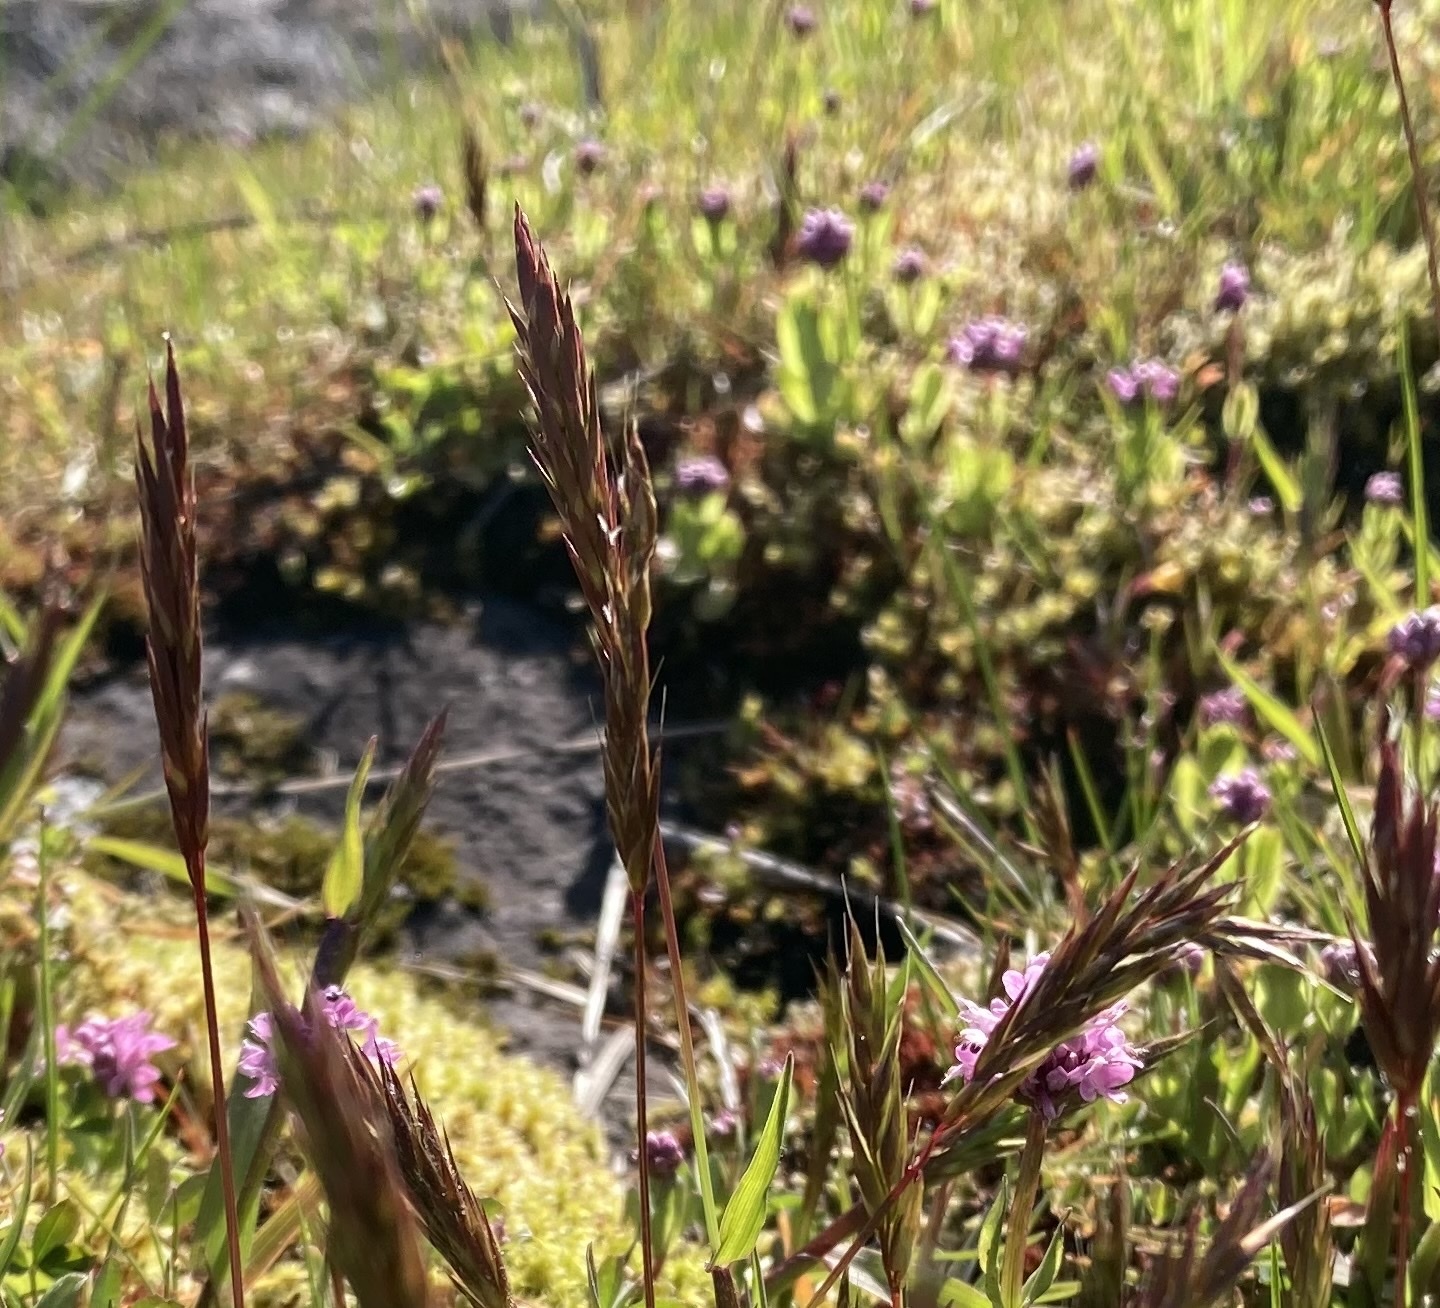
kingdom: Plantae
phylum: Tracheophyta
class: Liliopsida
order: Poales
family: Poaceae
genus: Anthoxanthum
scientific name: Anthoxanthum odoratum
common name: Sweet vernalgrass
